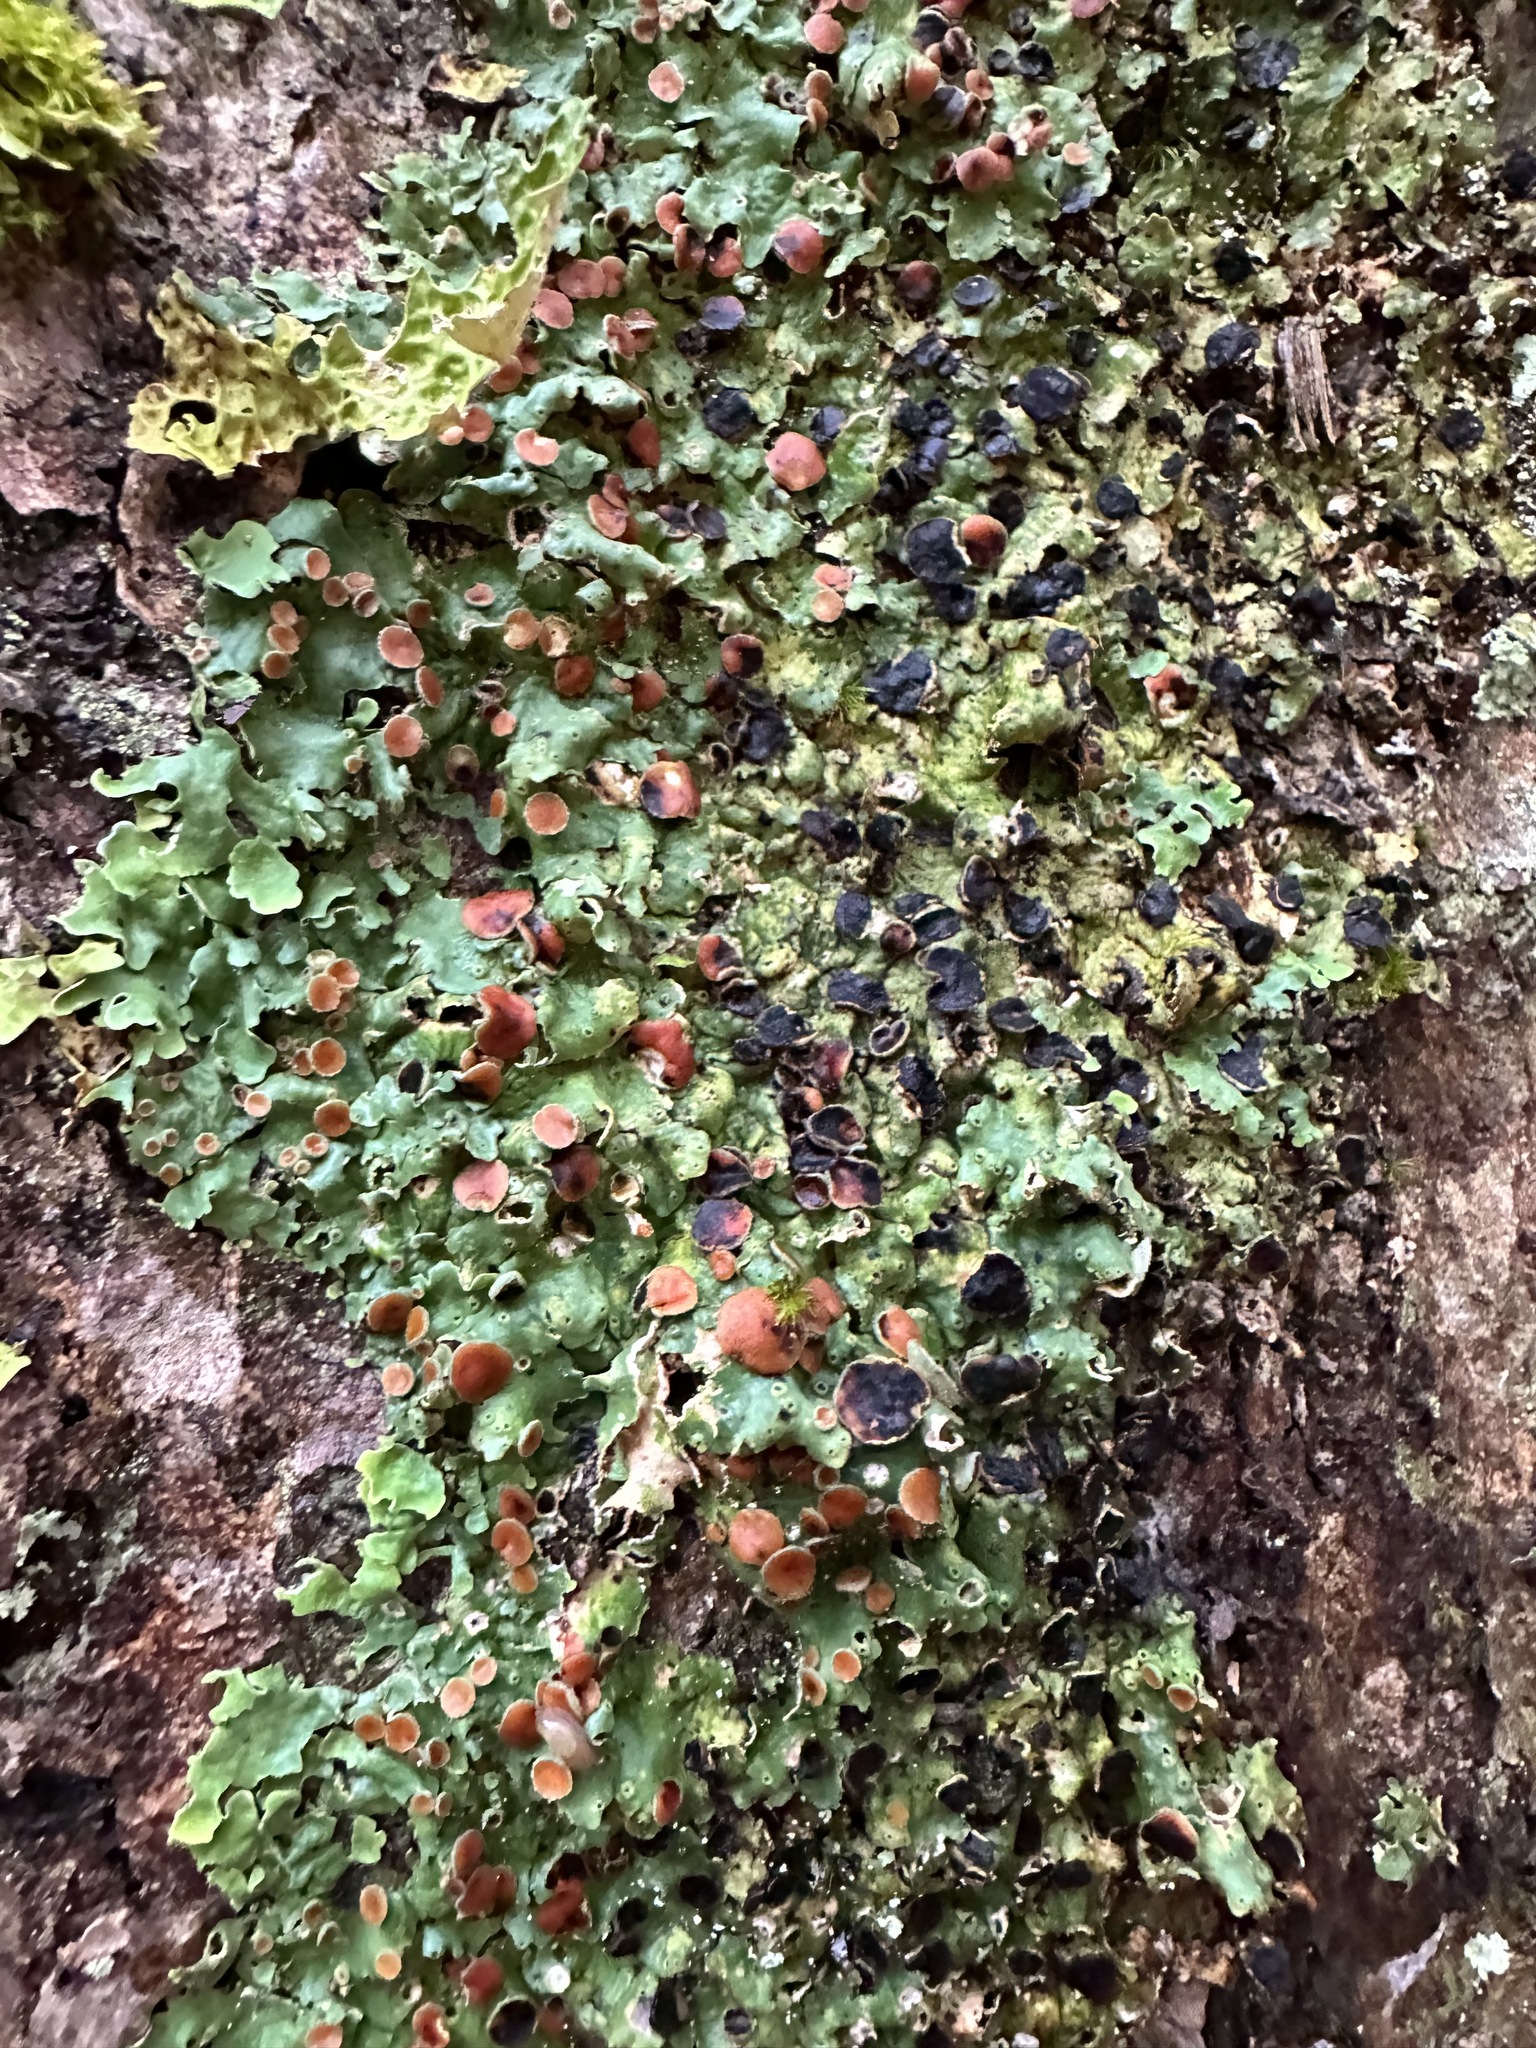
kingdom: Fungi
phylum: Ascomycota
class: Lecanoromycetes
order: Peltigerales
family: Lobariaceae
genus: Ricasolia
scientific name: Ricasolia quercizans
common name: Smooth lungwort
